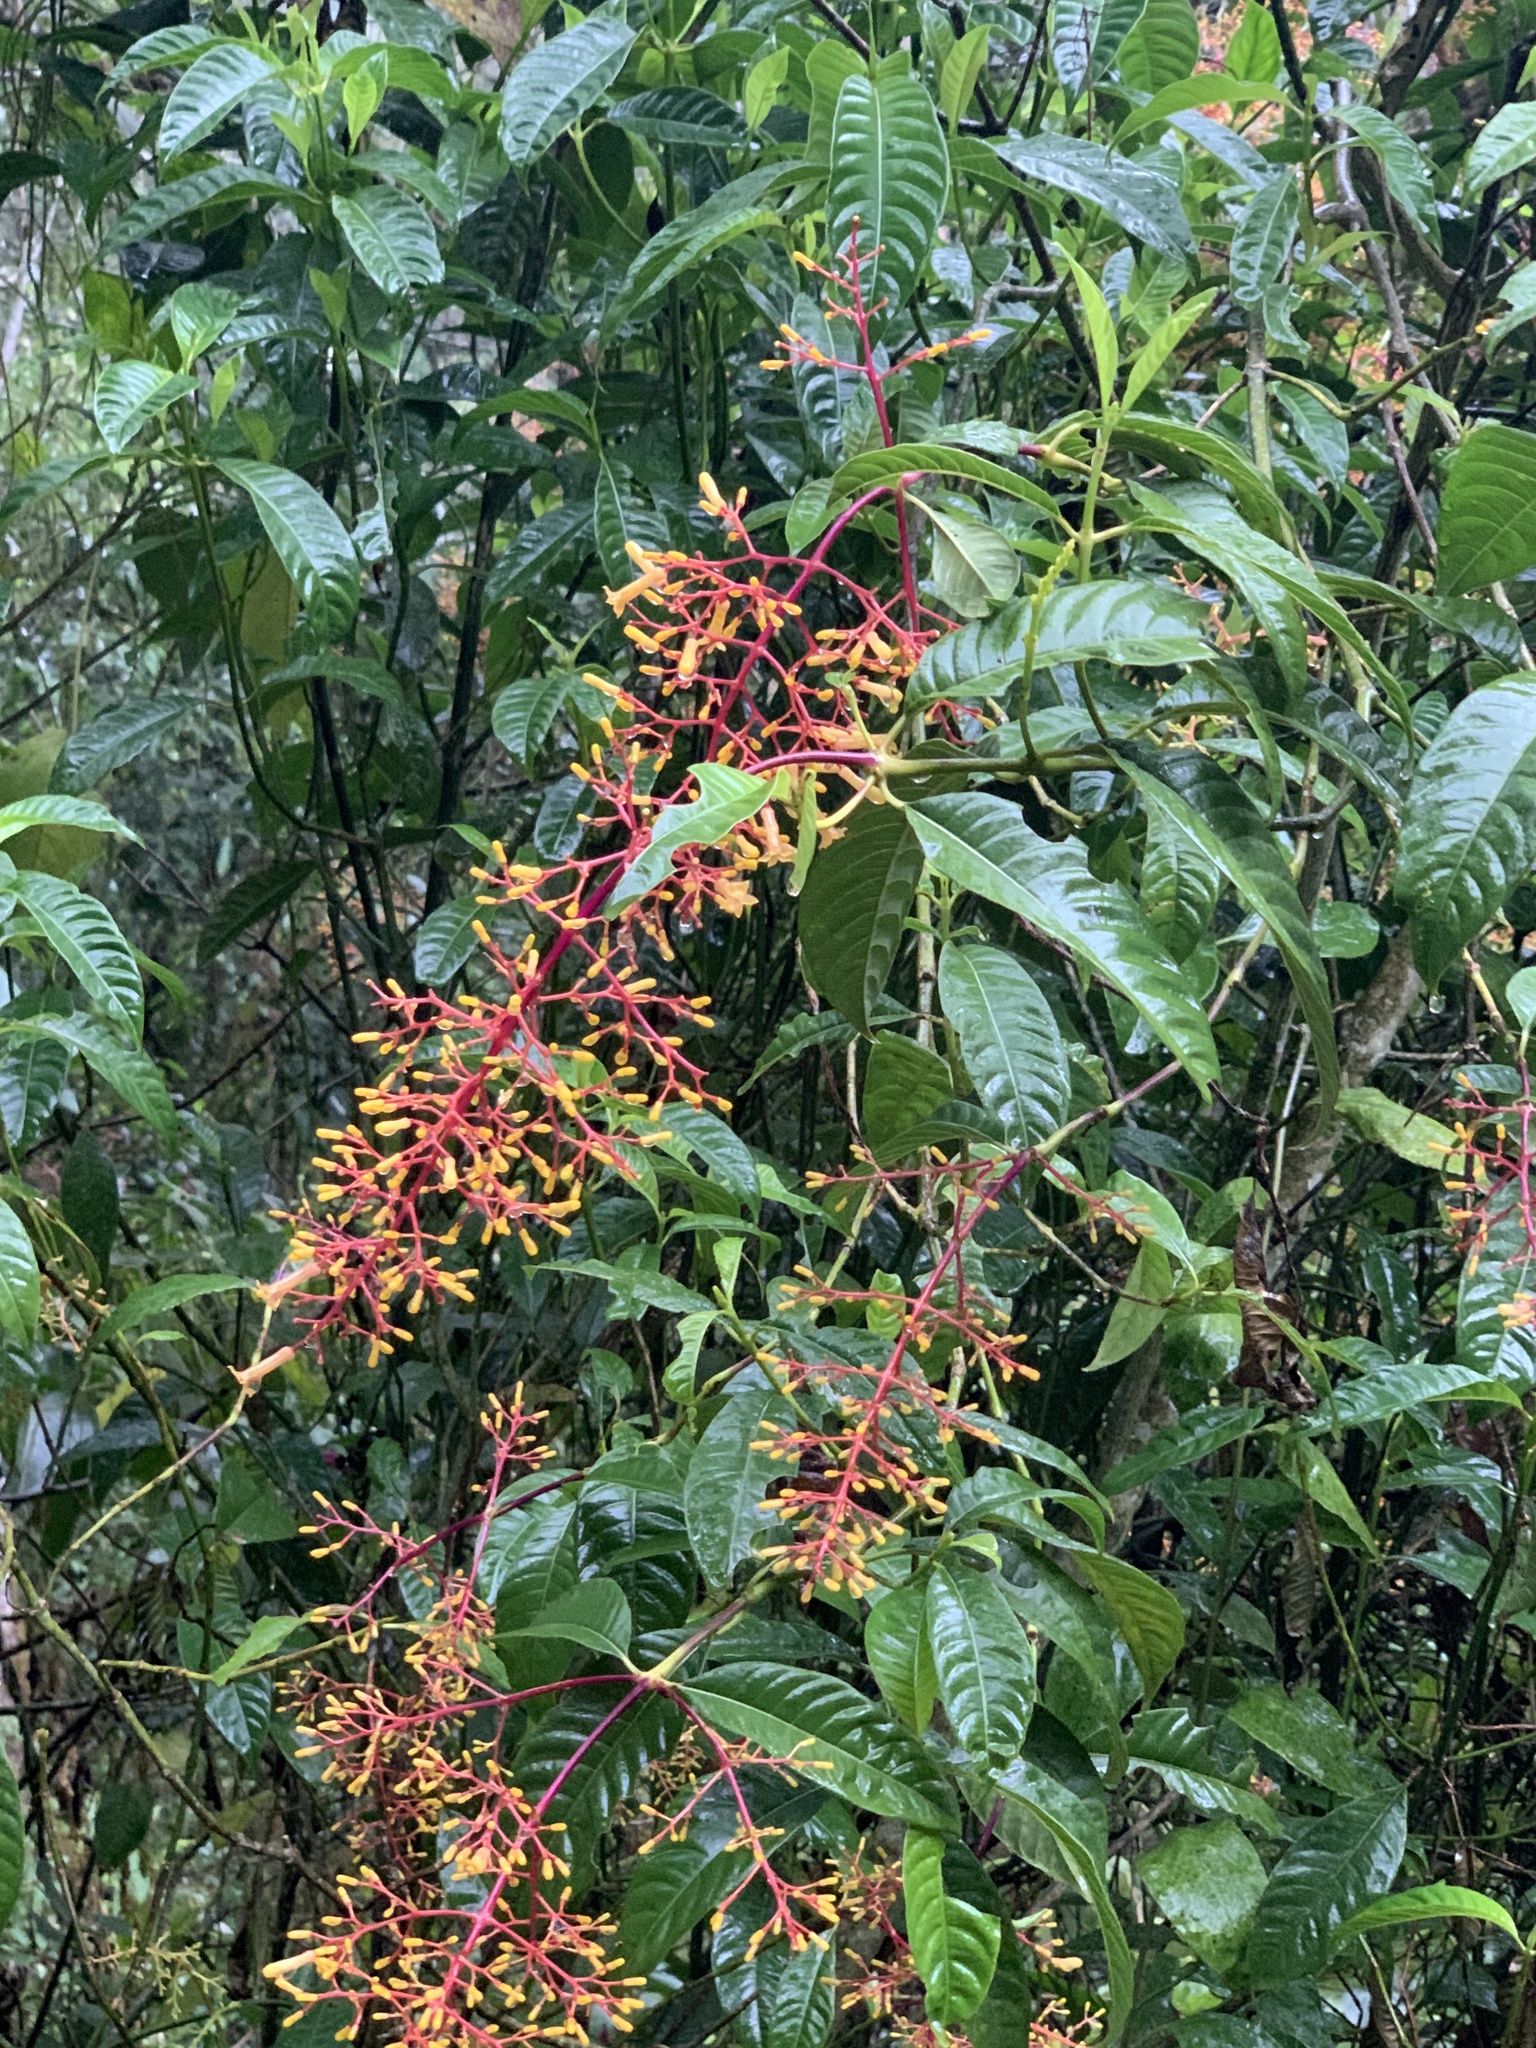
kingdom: Plantae
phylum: Tracheophyta
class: Magnoliopsida
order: Gentianales
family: Rubiaceae
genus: Palicourea
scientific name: Palicourea thyrsiflora
